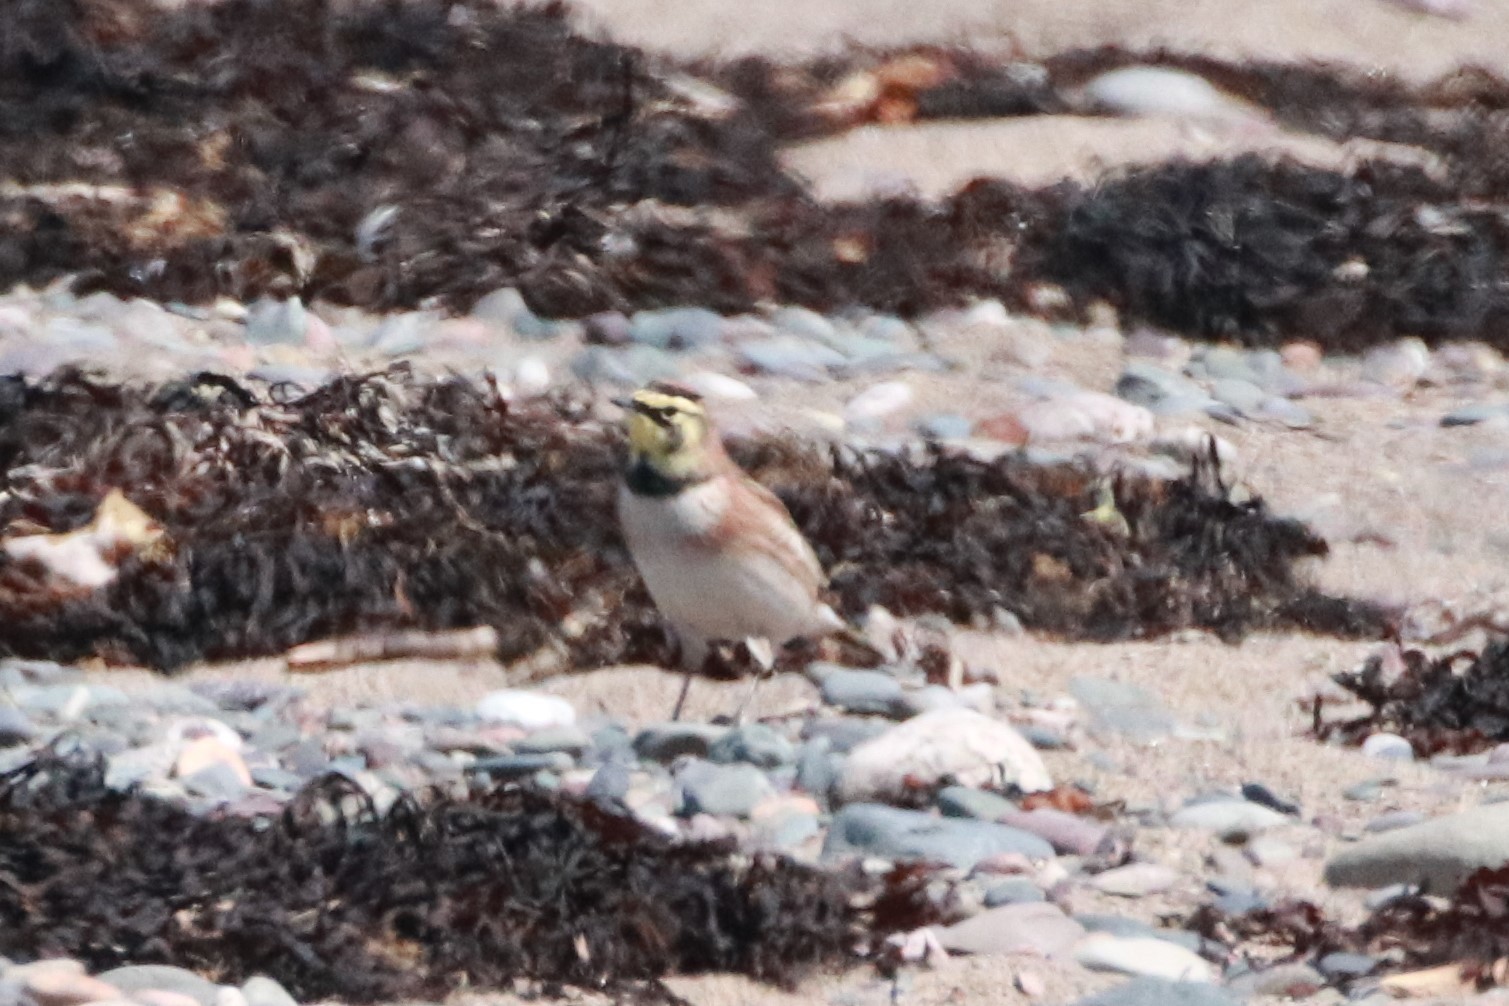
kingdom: Animalia
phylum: Chordata
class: Aves
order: Passeriformes
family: Alaudidae
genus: Eremophila
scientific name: Eremophila alpestris
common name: Horned lark
